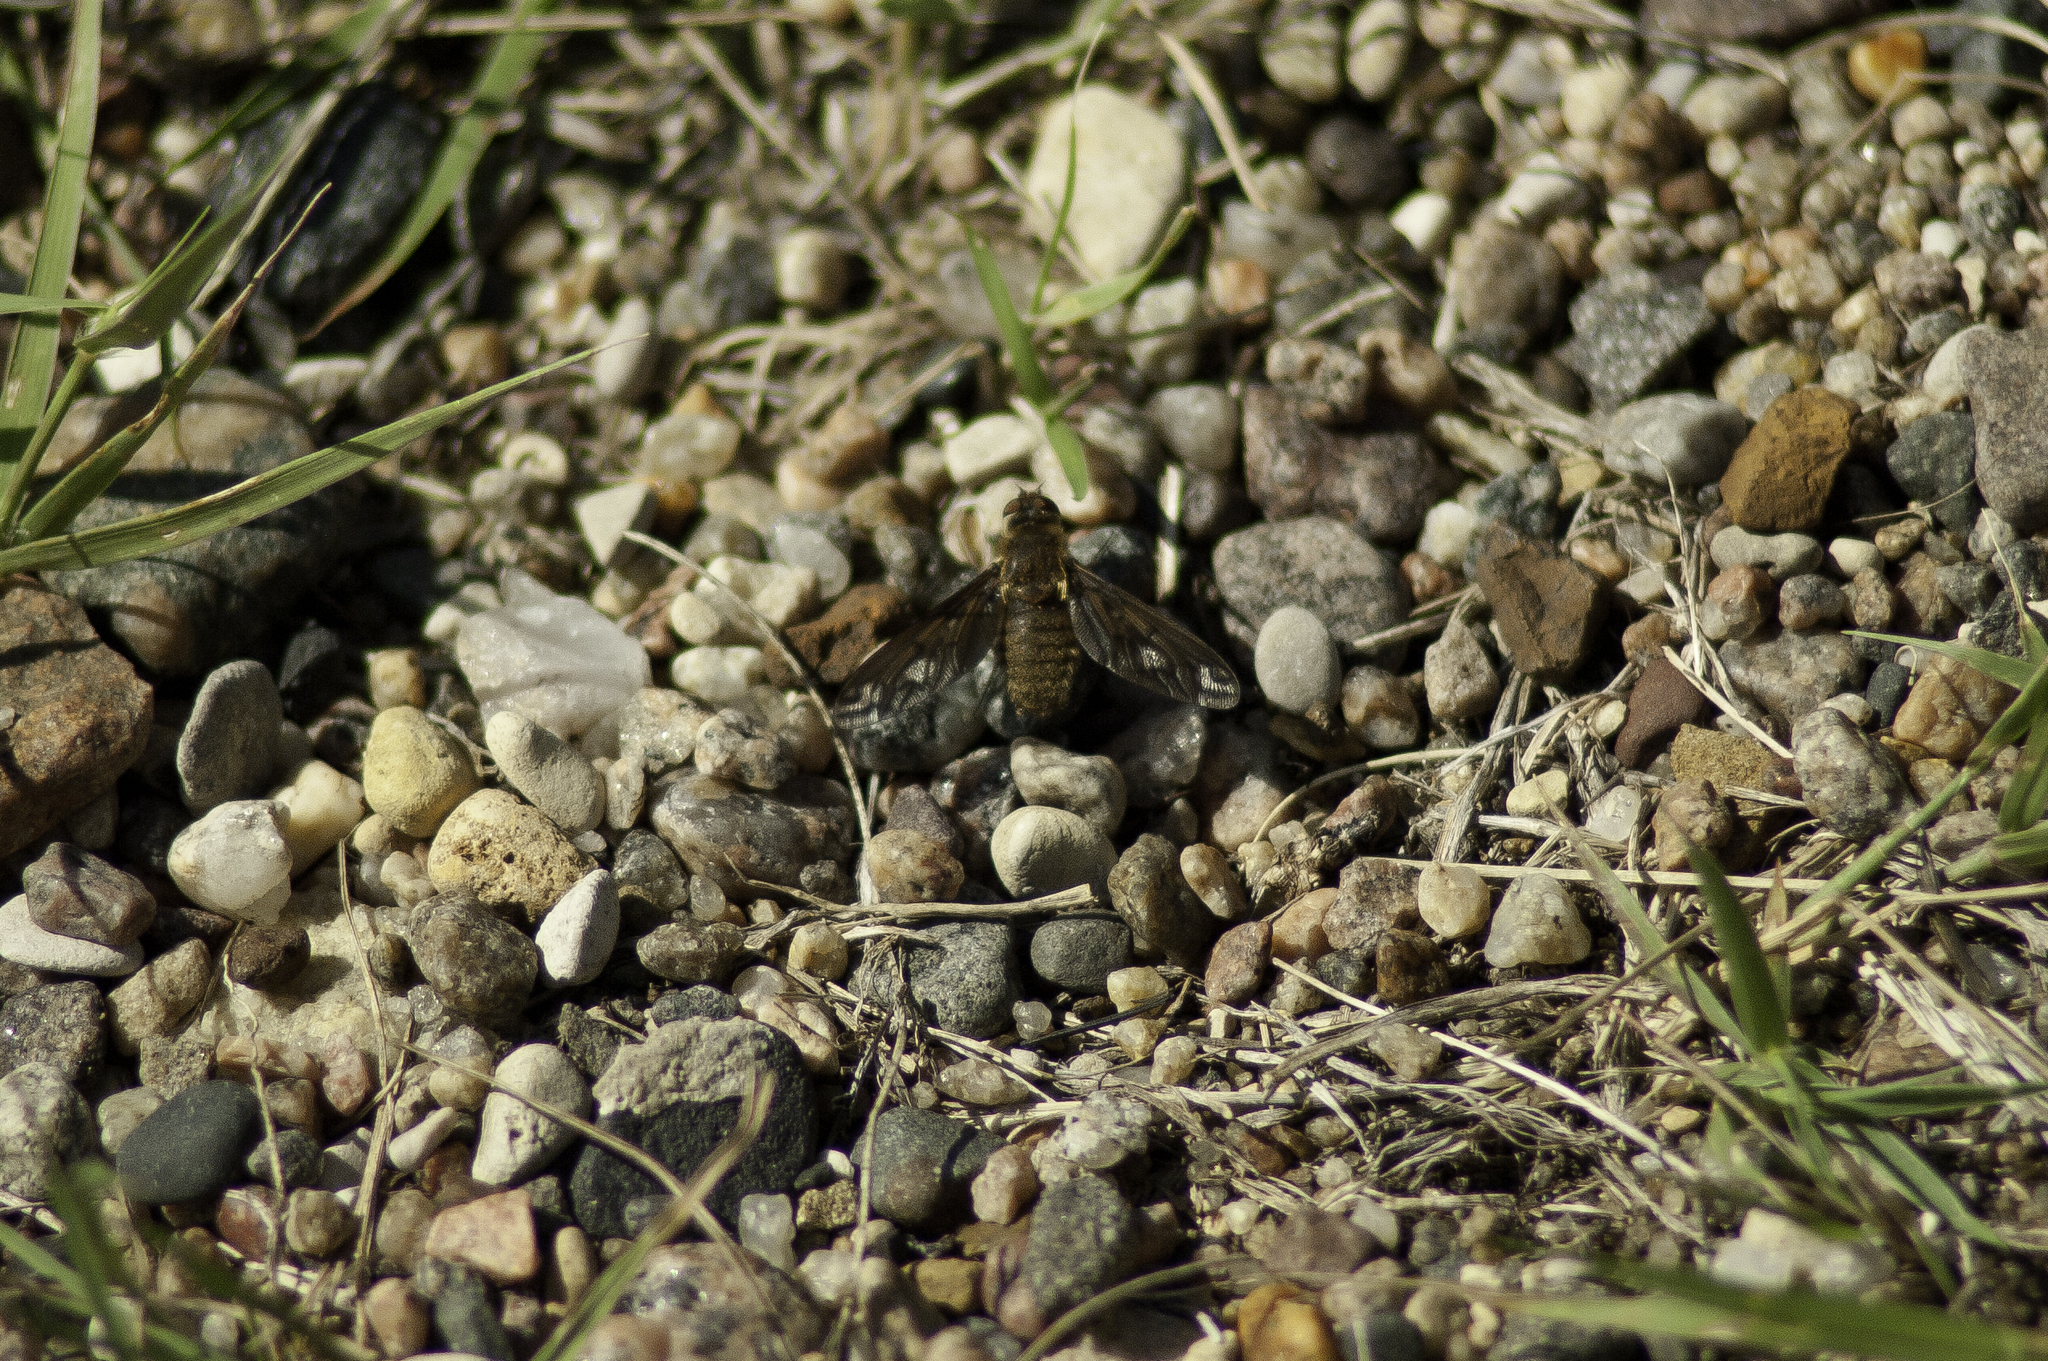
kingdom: Animalia
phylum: Arthropoda
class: Insecta
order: Diptera
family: Bombyliidae
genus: Poecilanthrax
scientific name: Poecilanthrax alcyon
